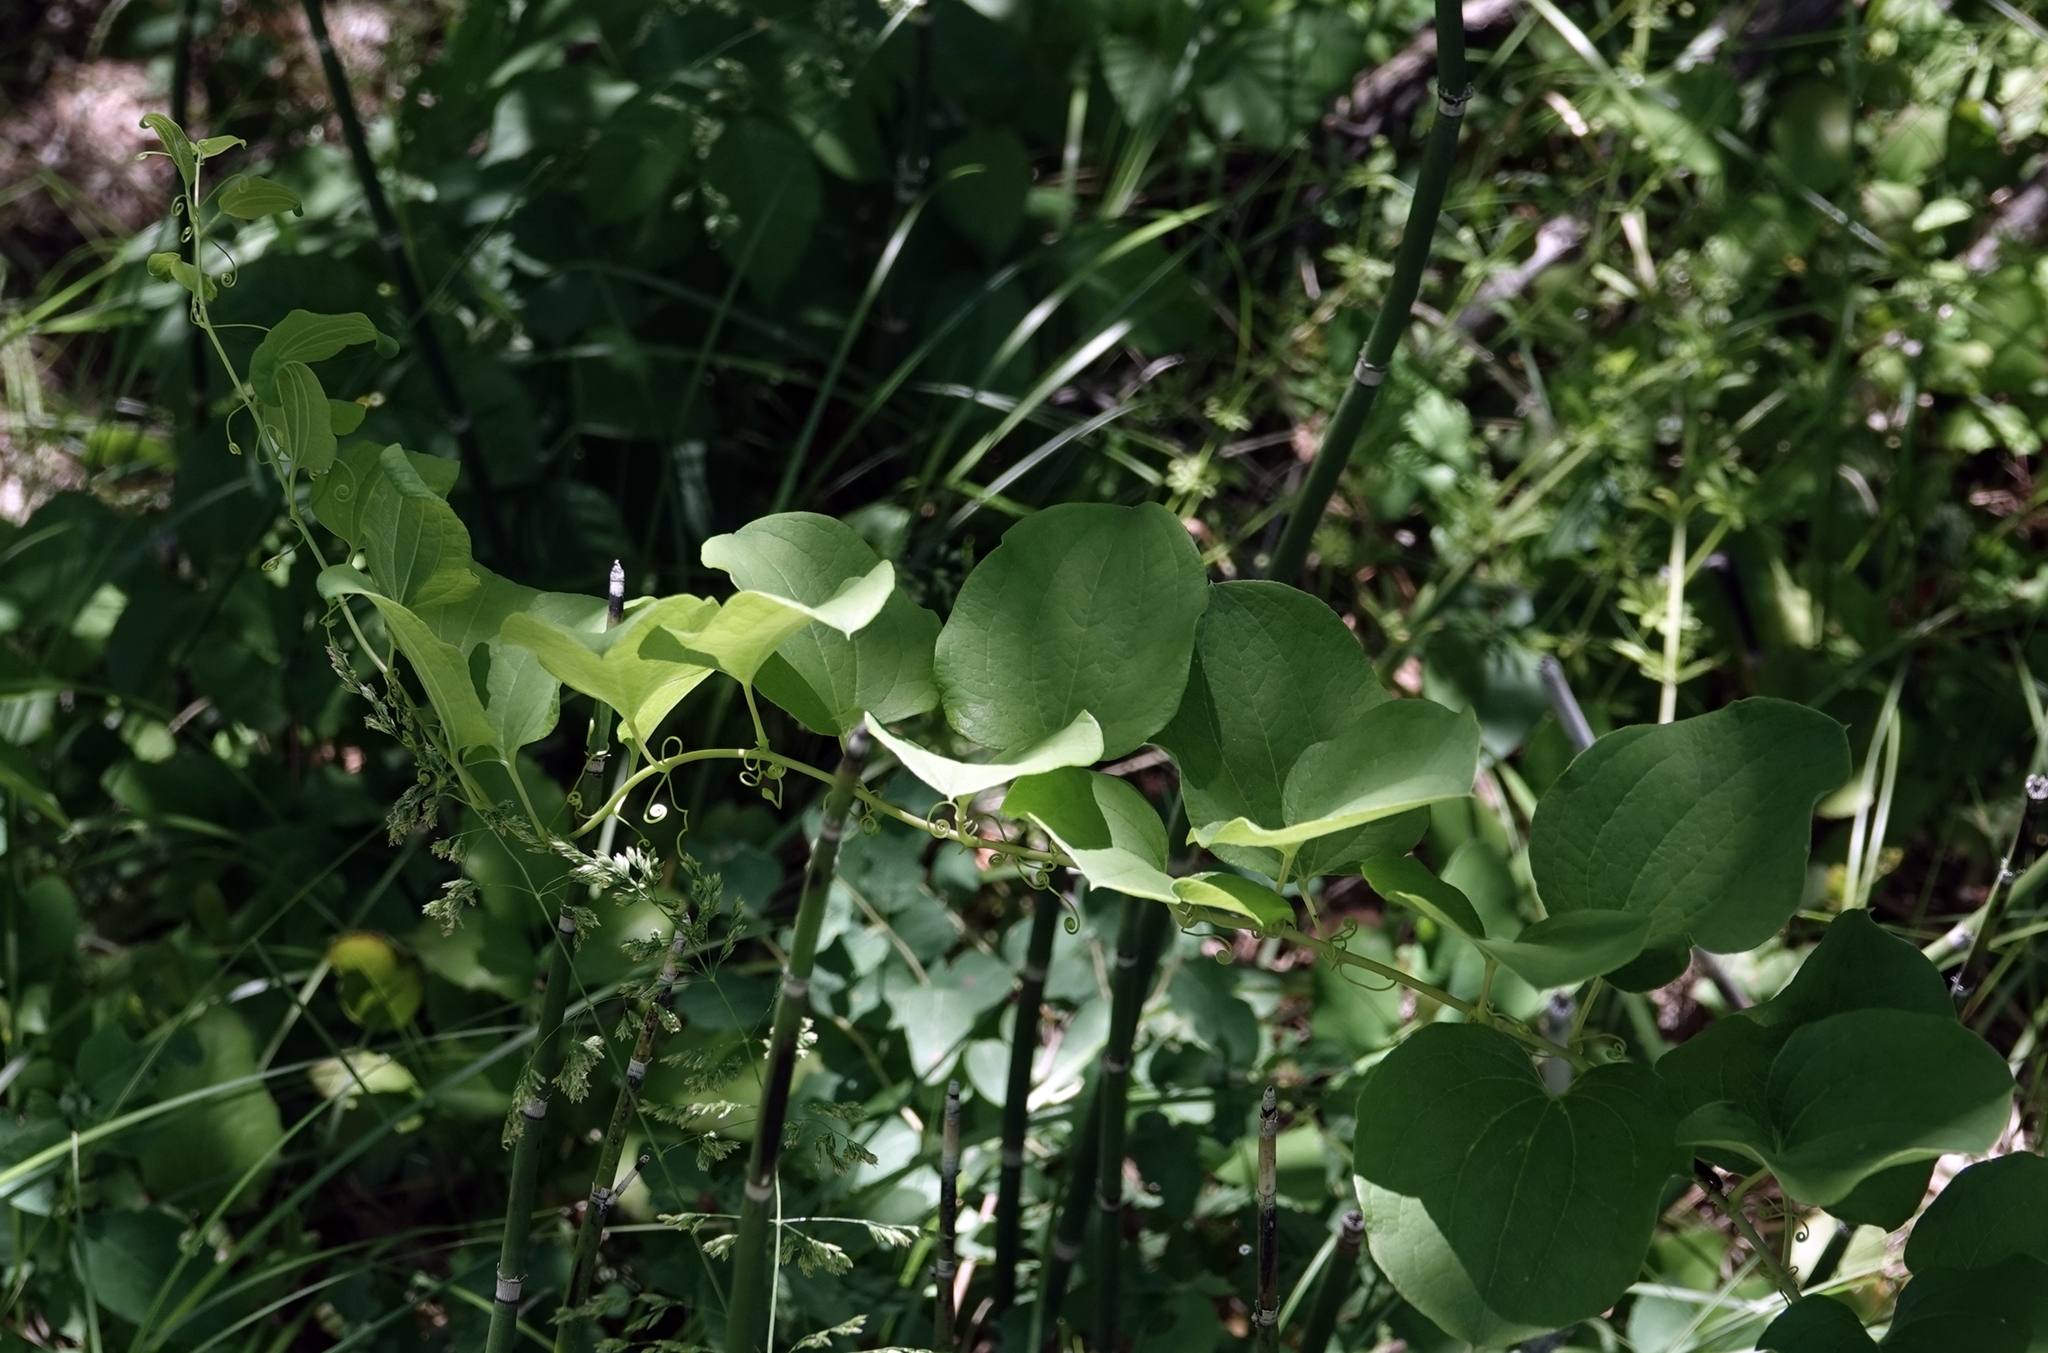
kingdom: Plantae
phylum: Tracheophyta
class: Liliopsida
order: Liliales
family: Smilacaceae
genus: Smilax
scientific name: Smilax lasioneura
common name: Blue ridge carrionflower
